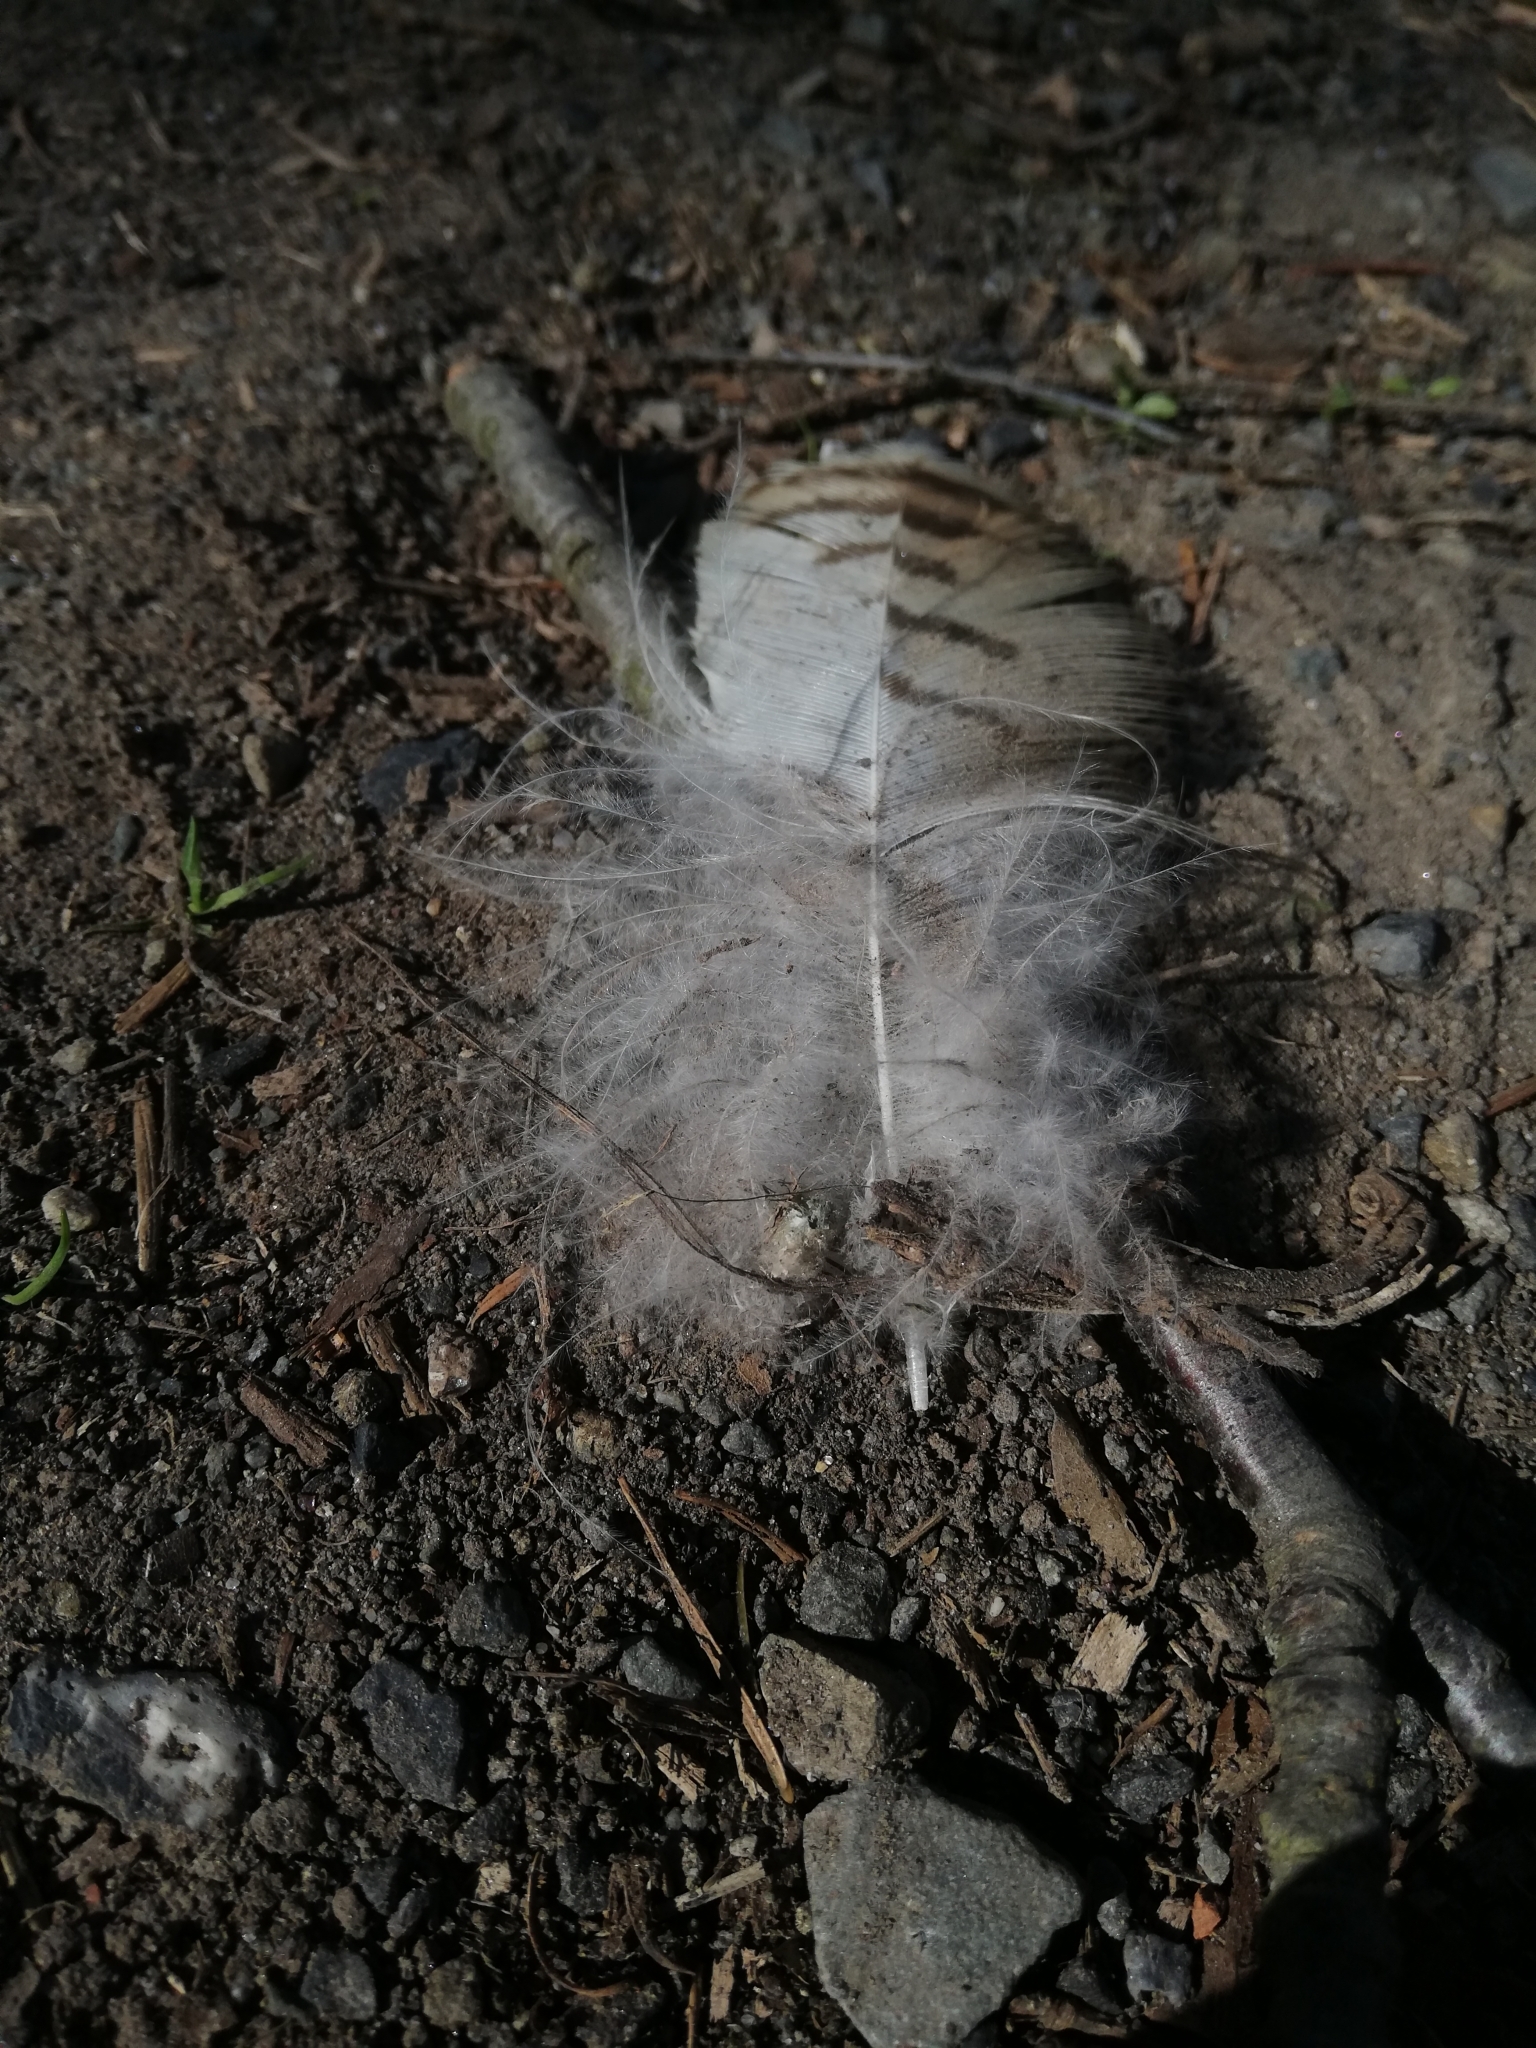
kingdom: Animalia
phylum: Chordata
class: Aves
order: Accipitriformes
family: Accipitridae
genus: Buteo
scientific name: Buteo buteo
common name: Common buzzard
